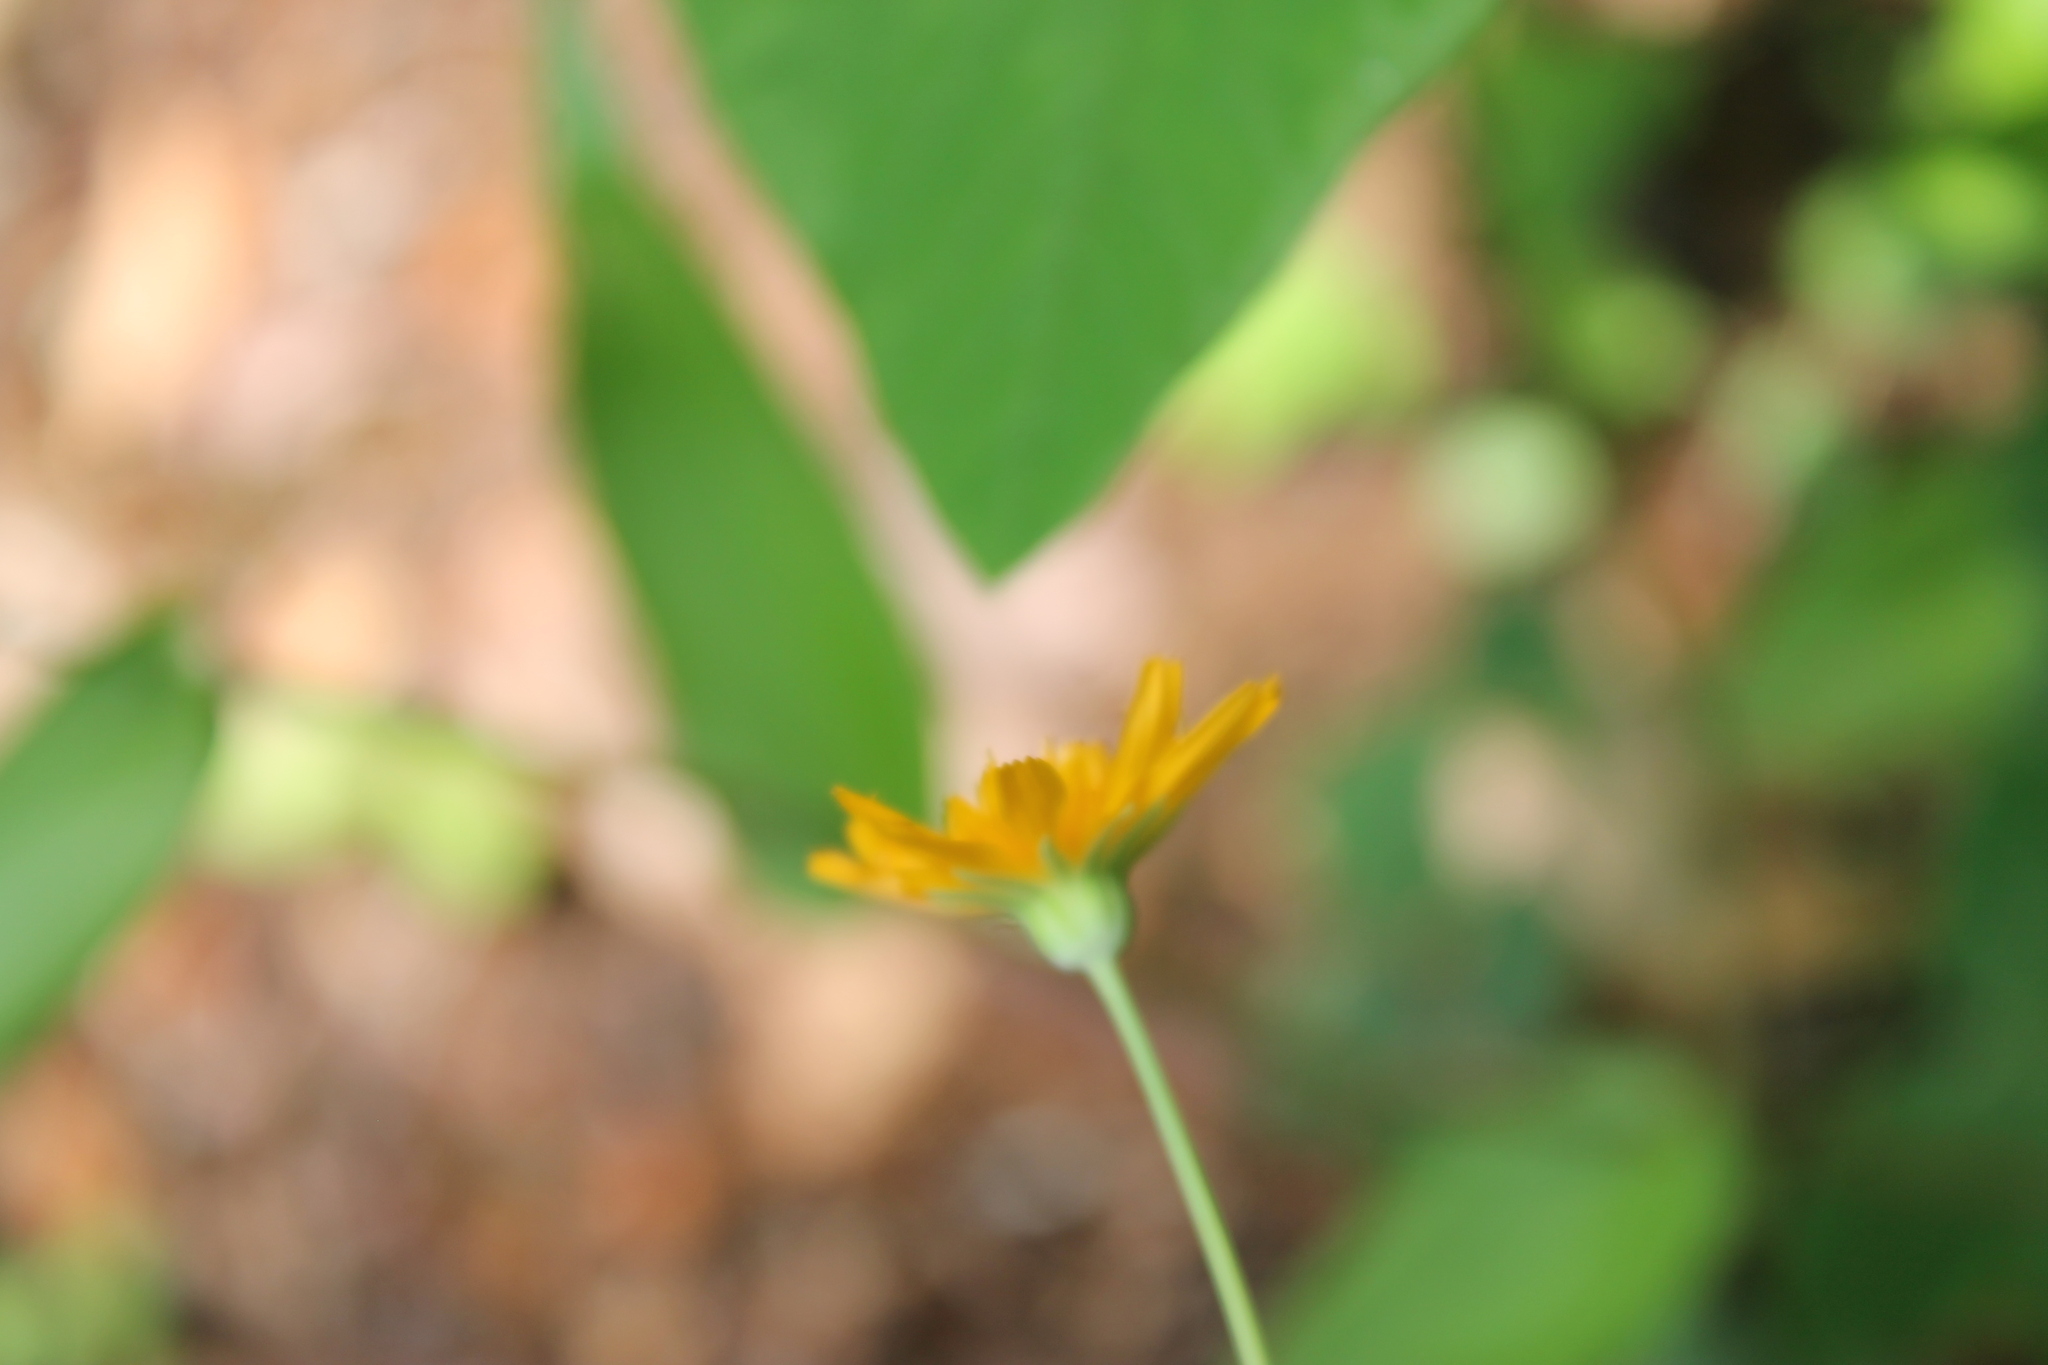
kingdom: Plantae
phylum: Tracheophyta
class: Magnoliopsida
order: Asterales
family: Asteraceae
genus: Krigia
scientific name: Krigia biflora
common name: Orange dwarf-dandelion
